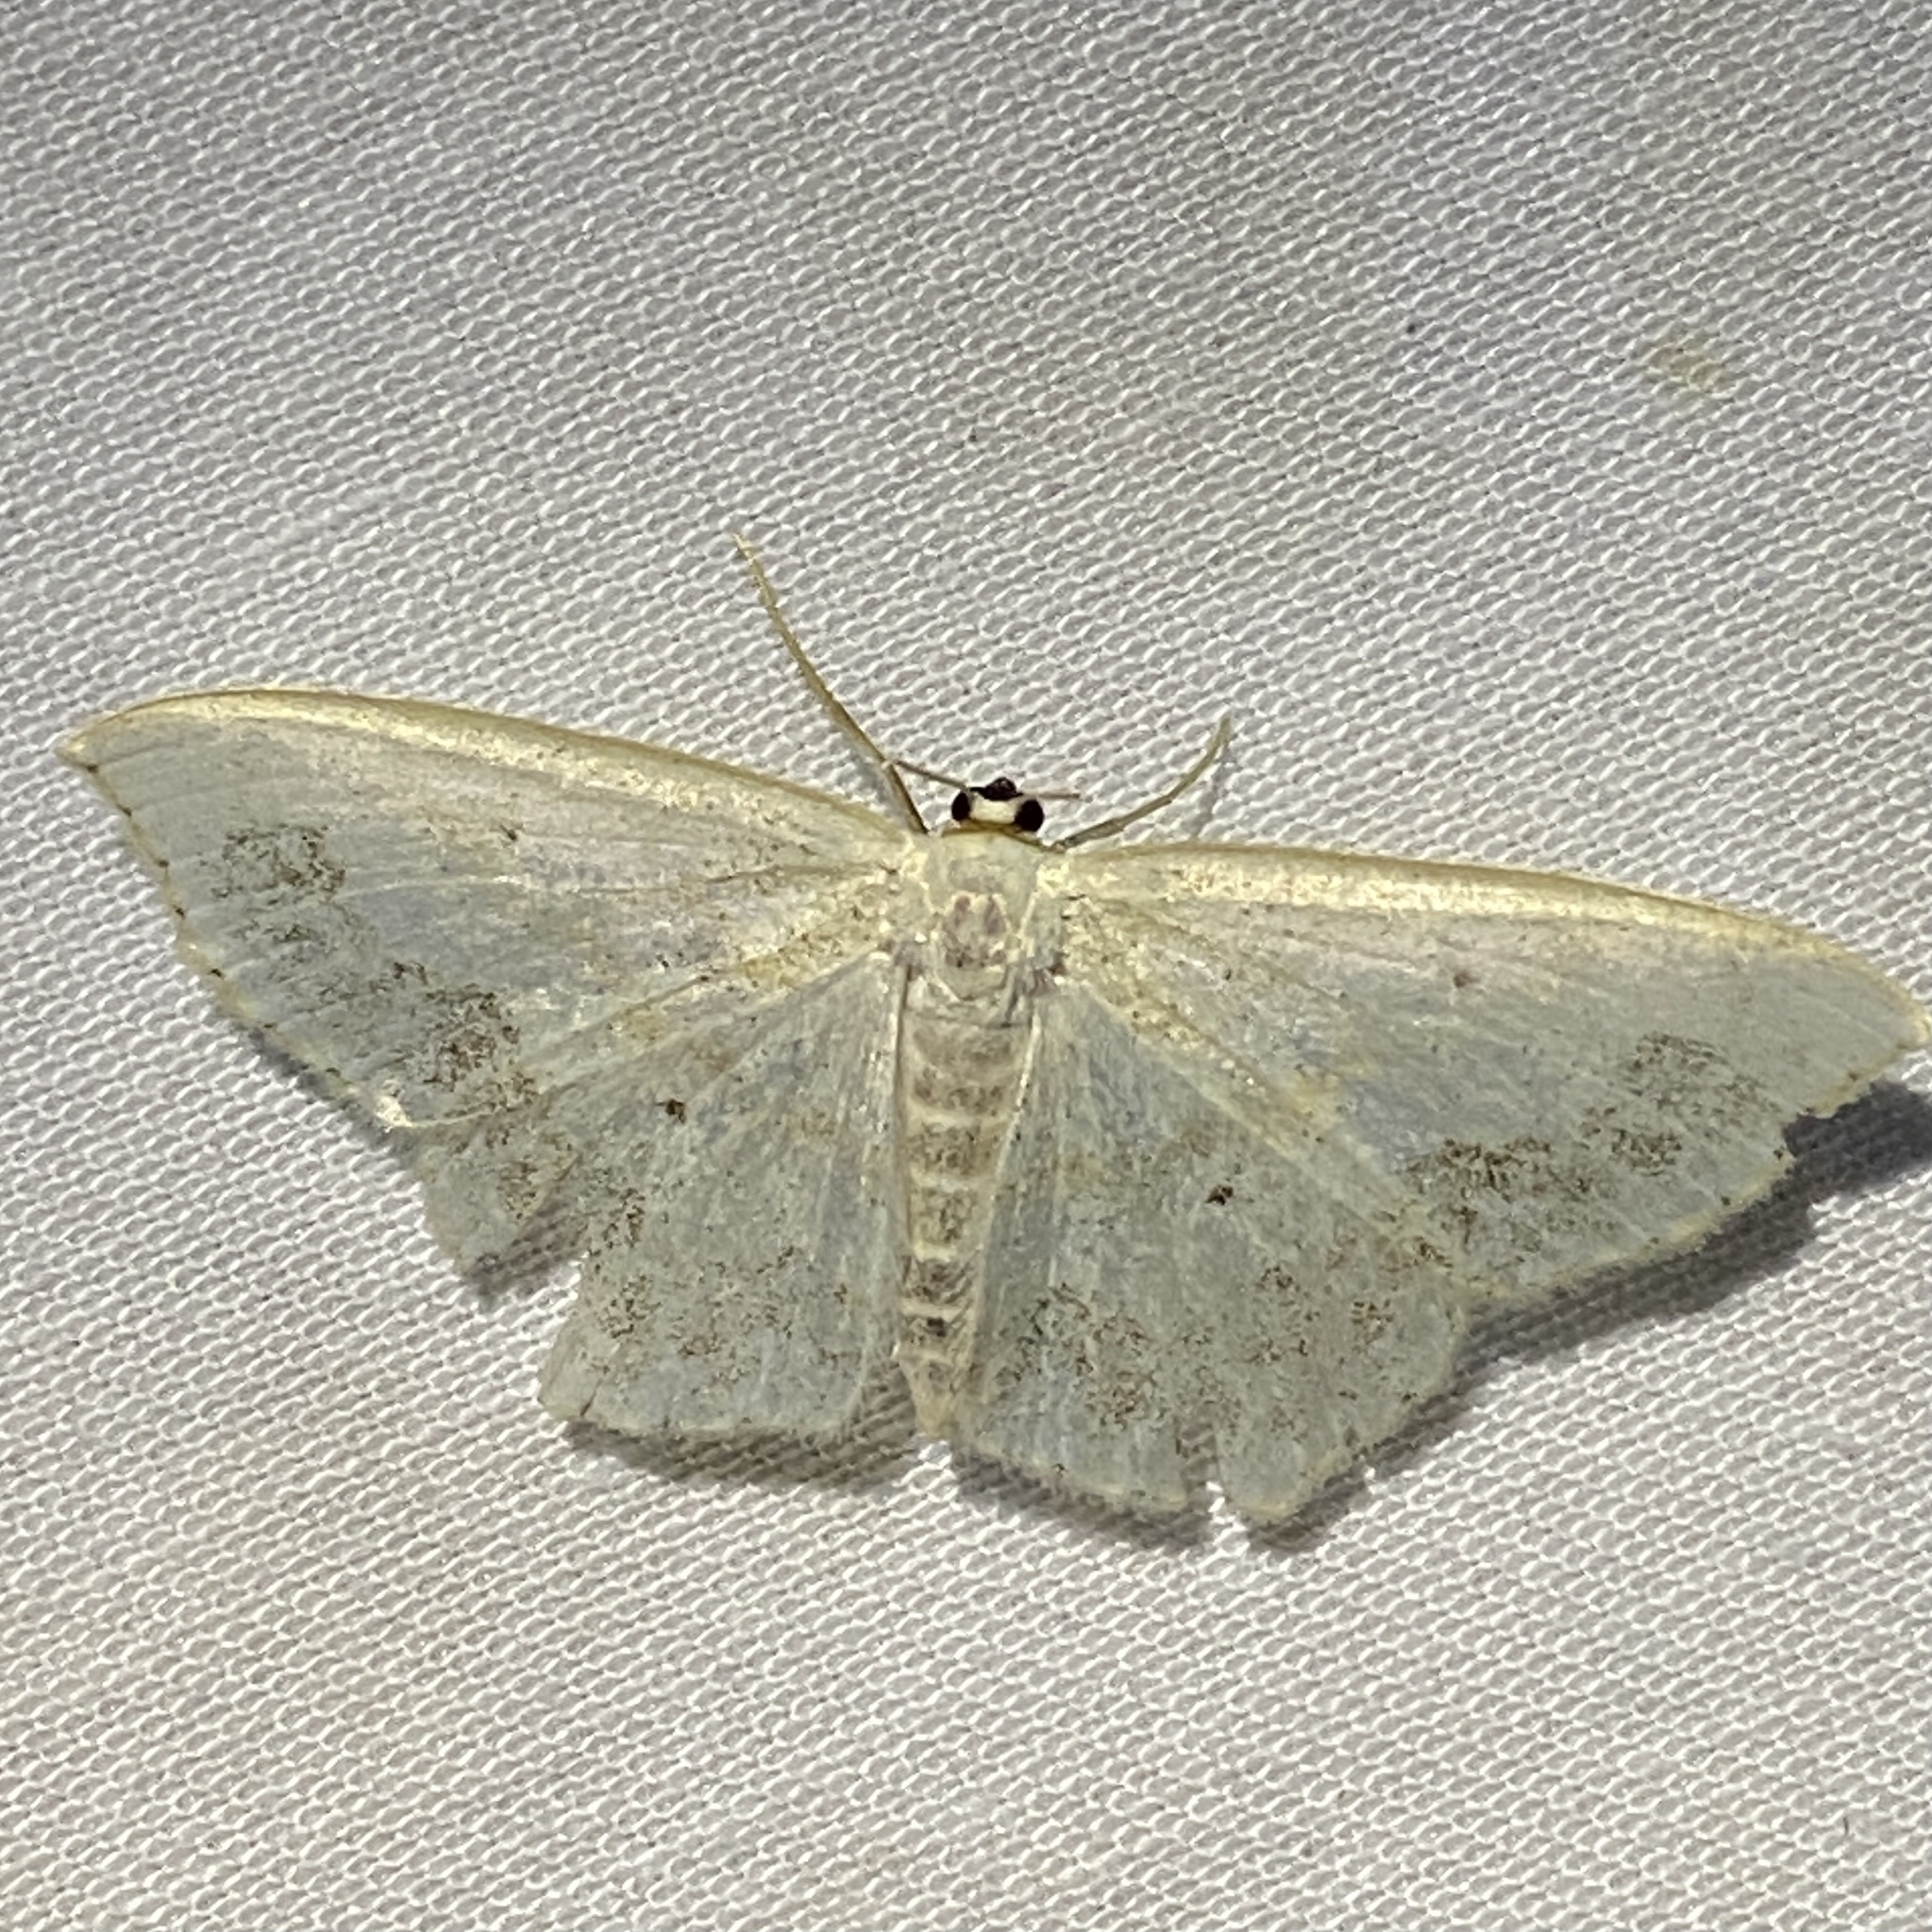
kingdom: Animalia
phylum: Arthropoda
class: Insecta
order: Lepidoptera
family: Geometridae
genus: Scopula
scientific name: Scopula limboundata
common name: Large lace border
